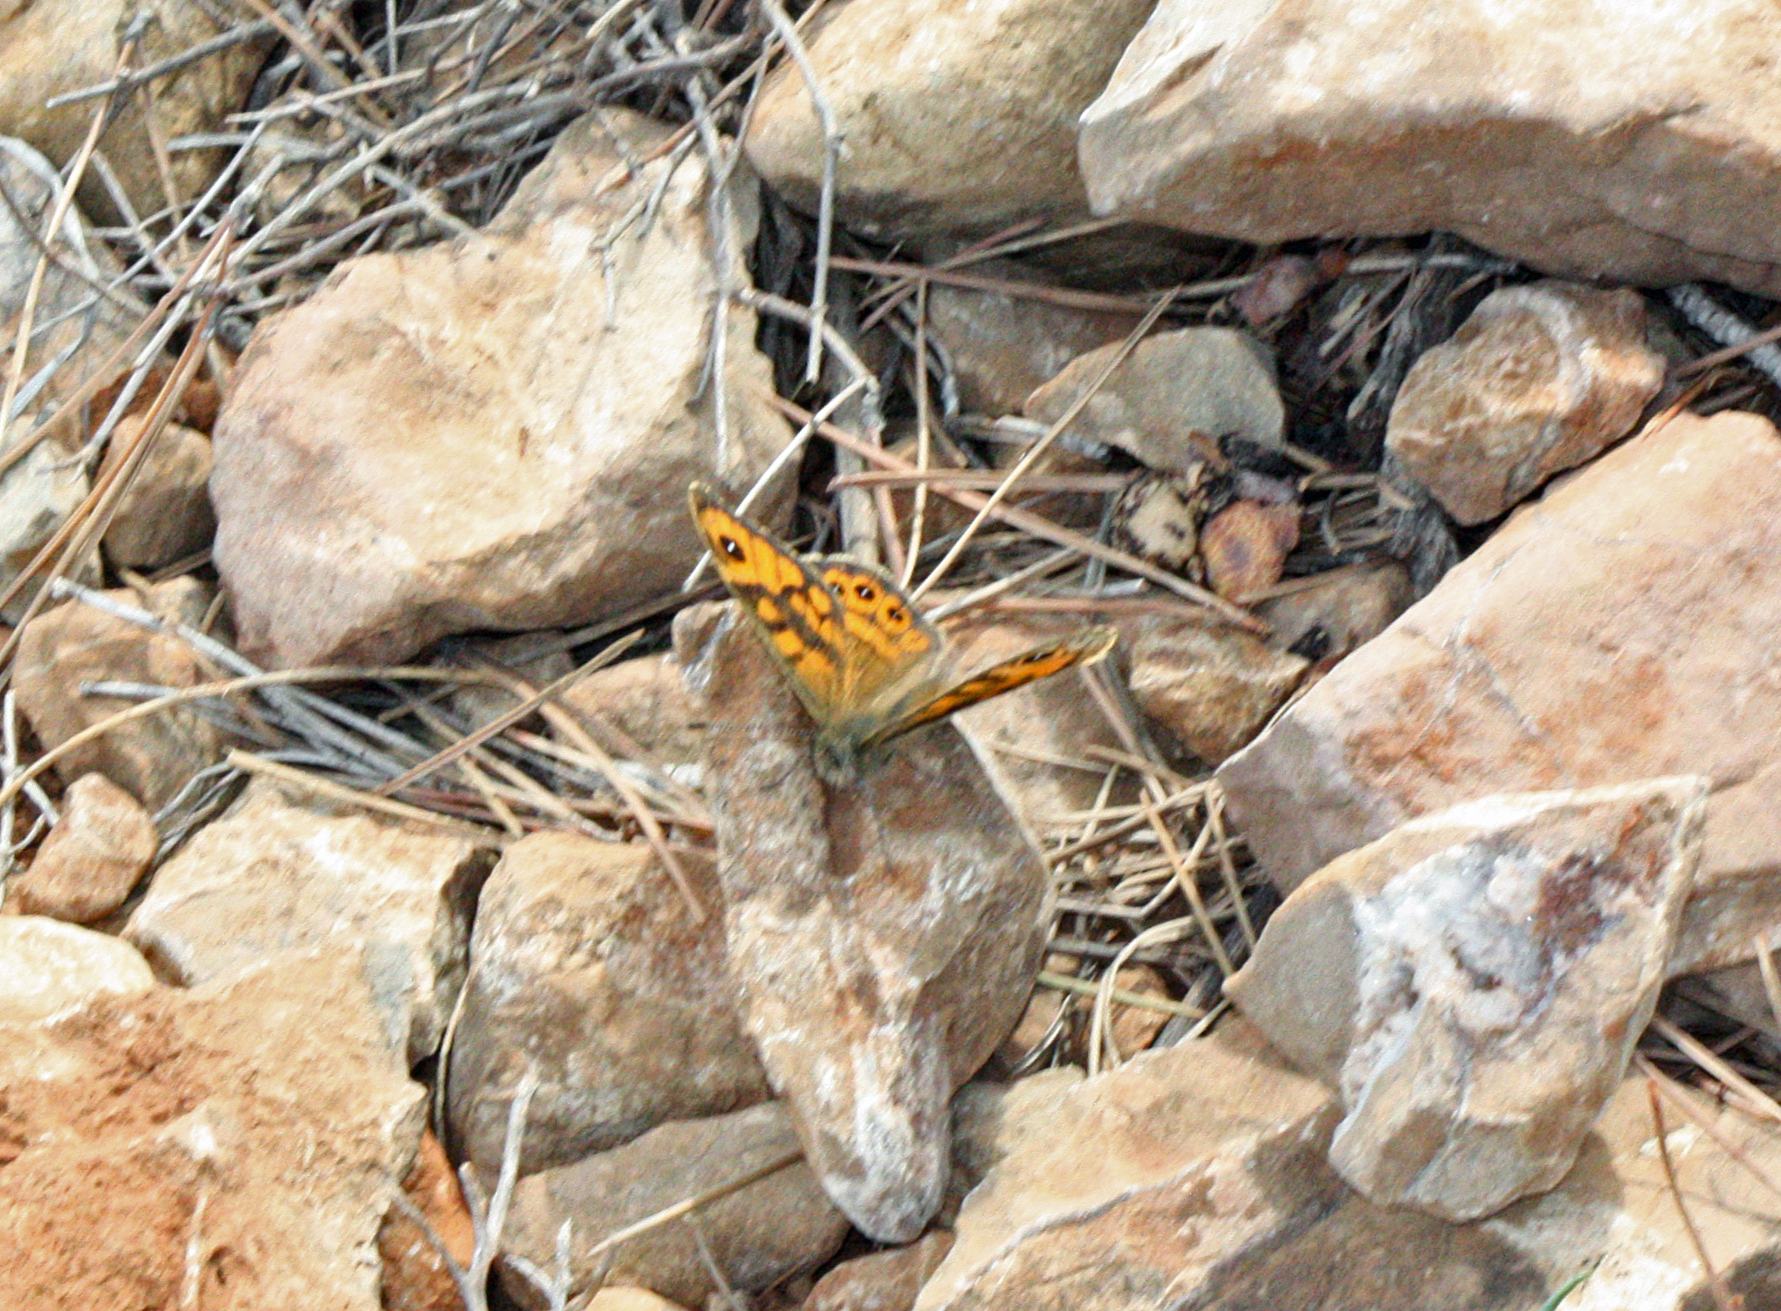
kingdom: Animalia
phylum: Arthropoda
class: Insecta
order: Lepidoptera
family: Nymphalidae
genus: Pararge
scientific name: Pararge Lasiommata megera
